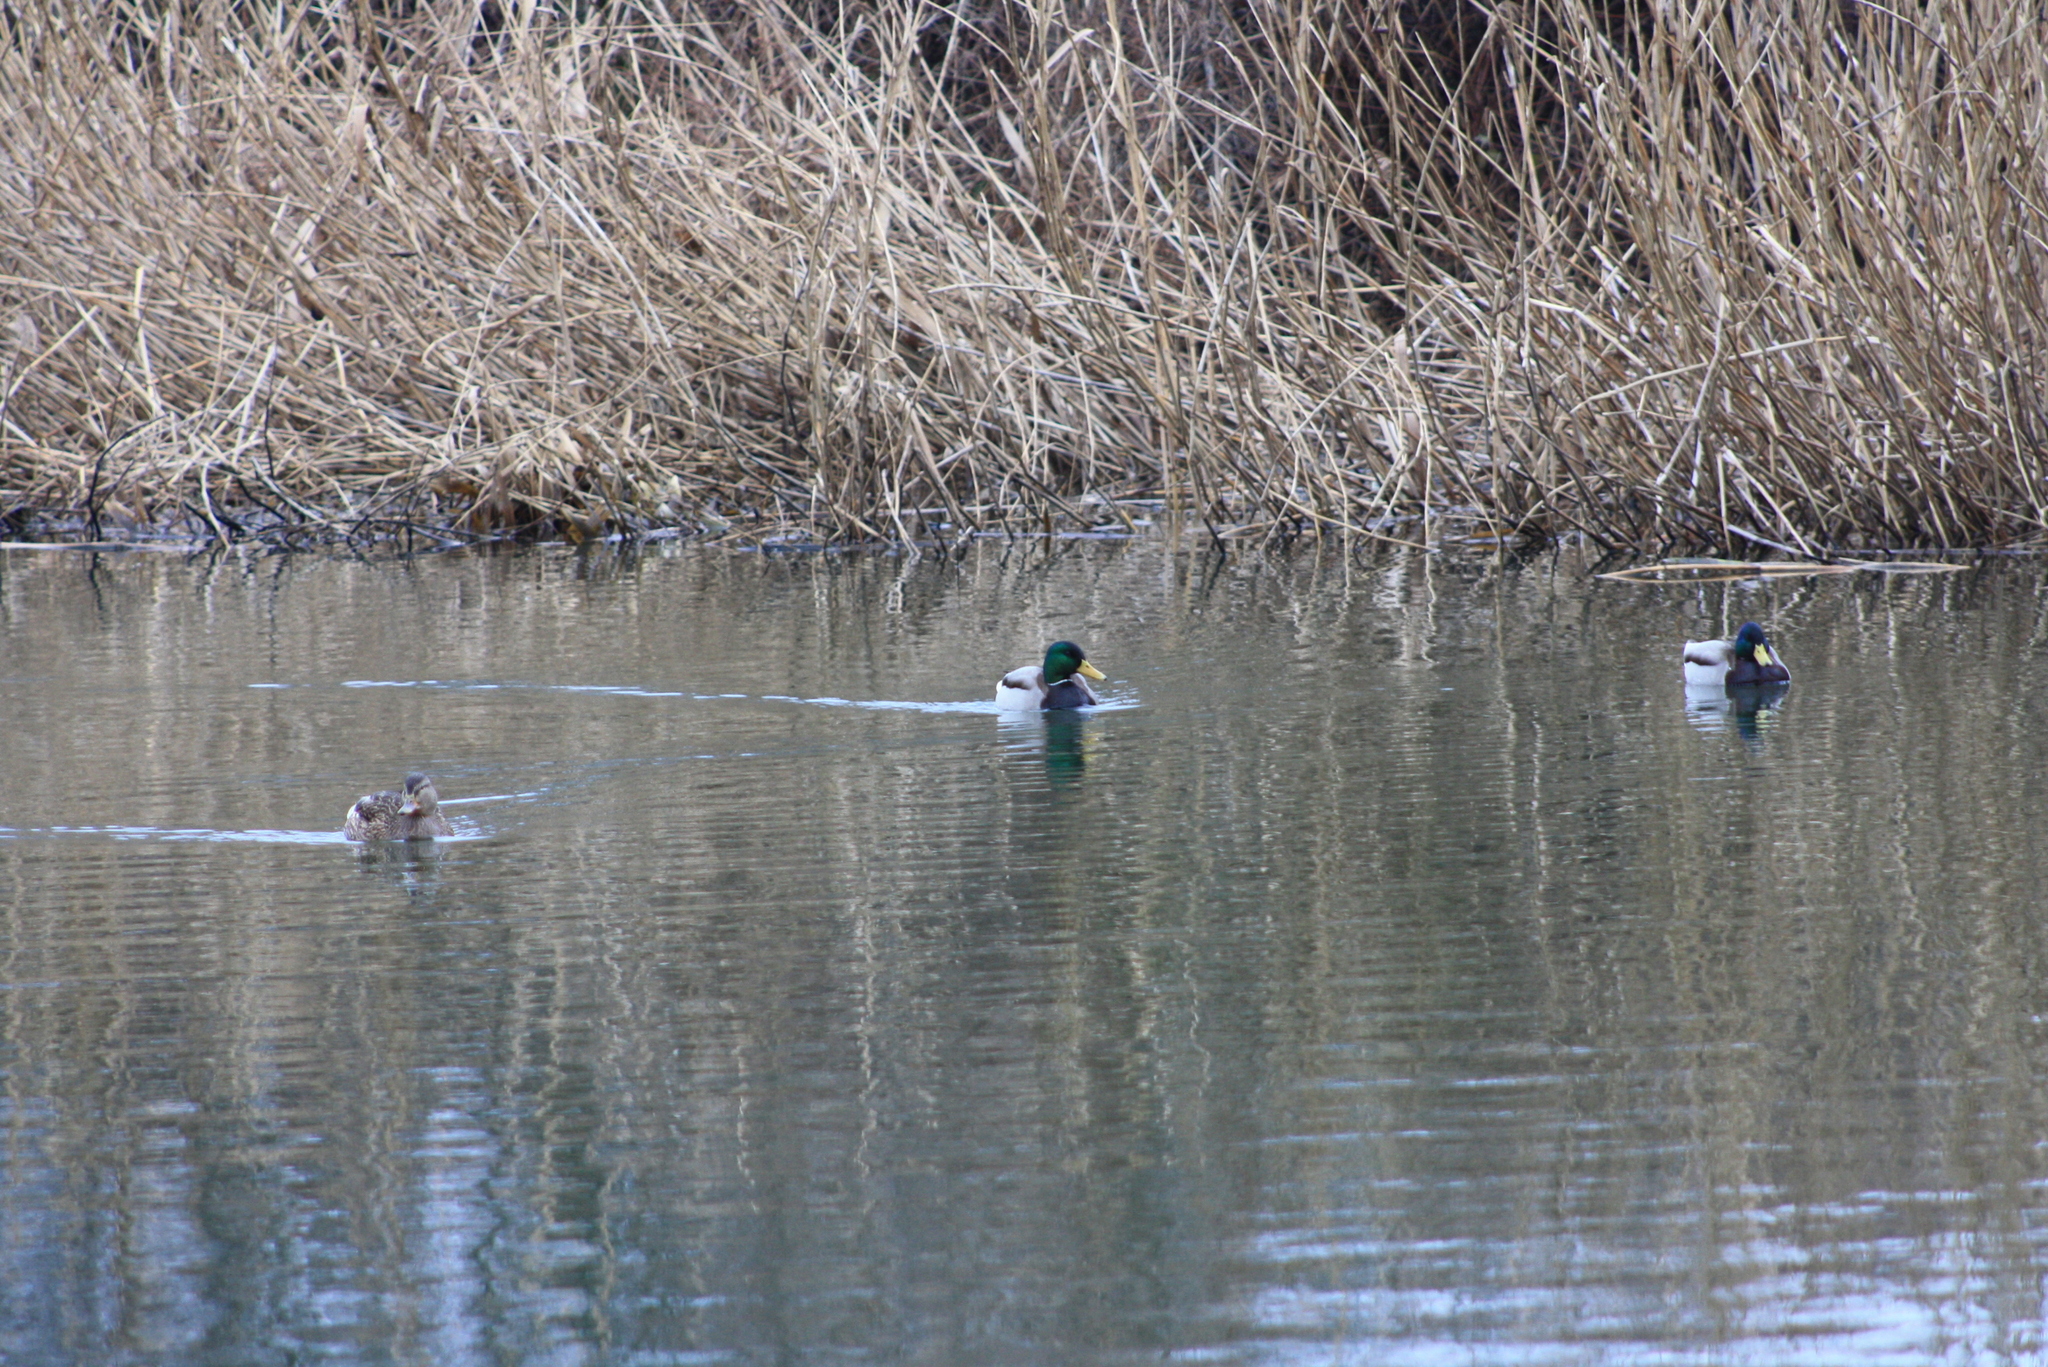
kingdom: Animalia
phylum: Chordata
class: Aves
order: Anseriformes
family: Anatidae
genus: Anas
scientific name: Anas platyrhynchos
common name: Mallard
